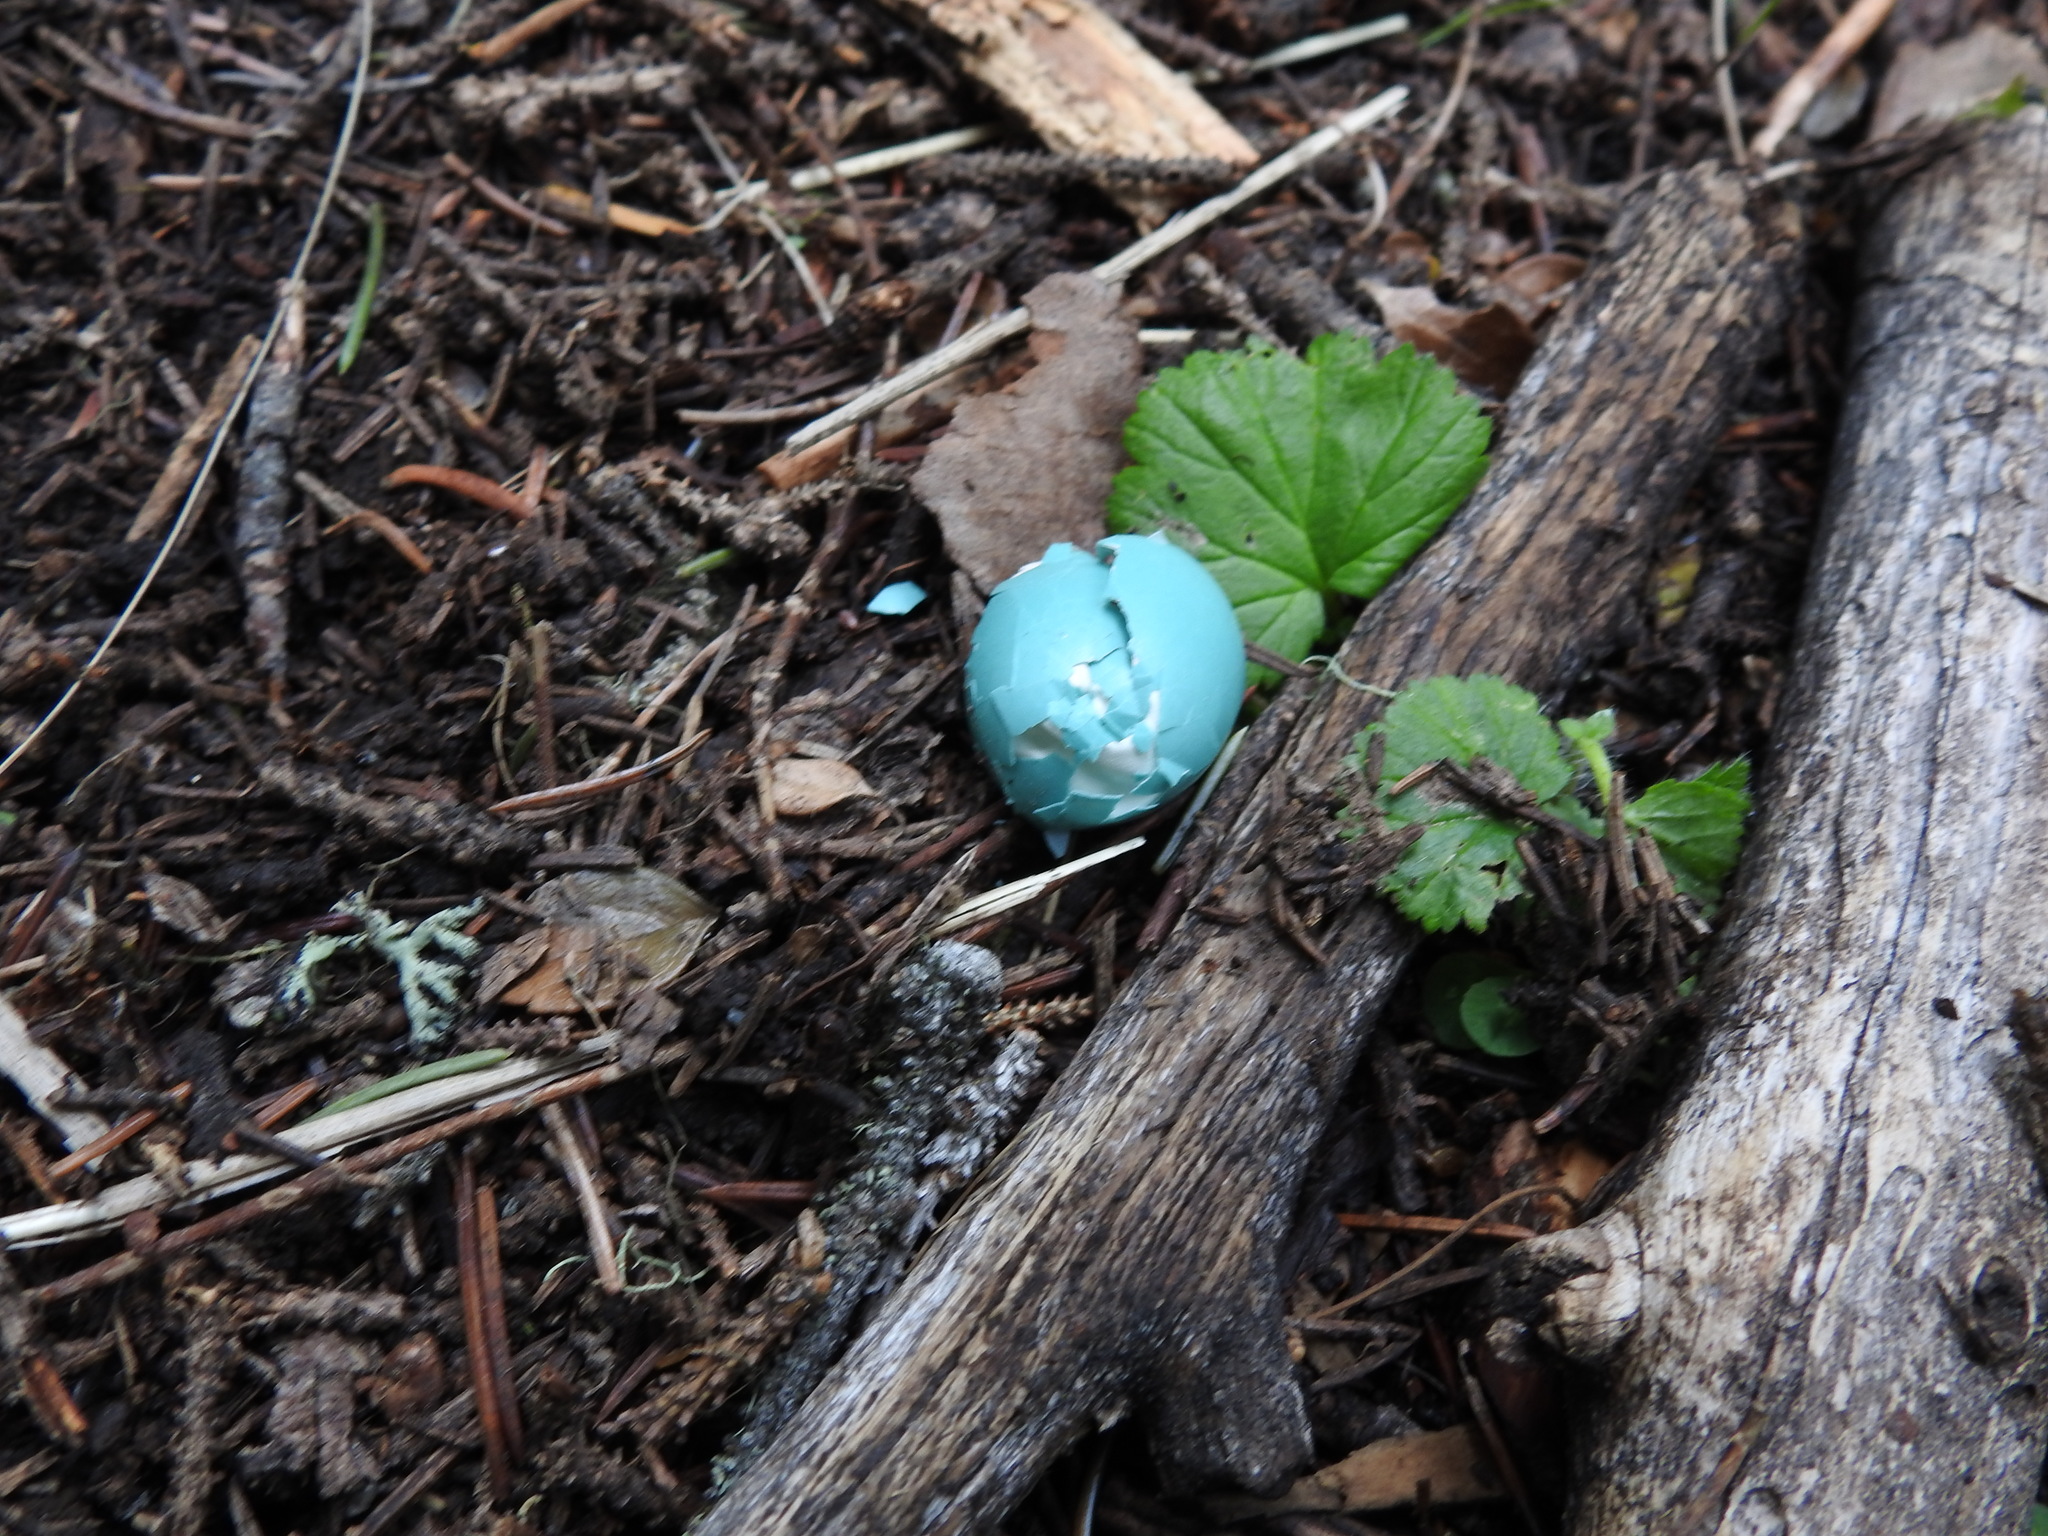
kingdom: Animalia
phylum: Chordata
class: Aves
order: Passeriformes
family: Turdidae
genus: Turdus
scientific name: Turdus migratorius
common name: American robin
